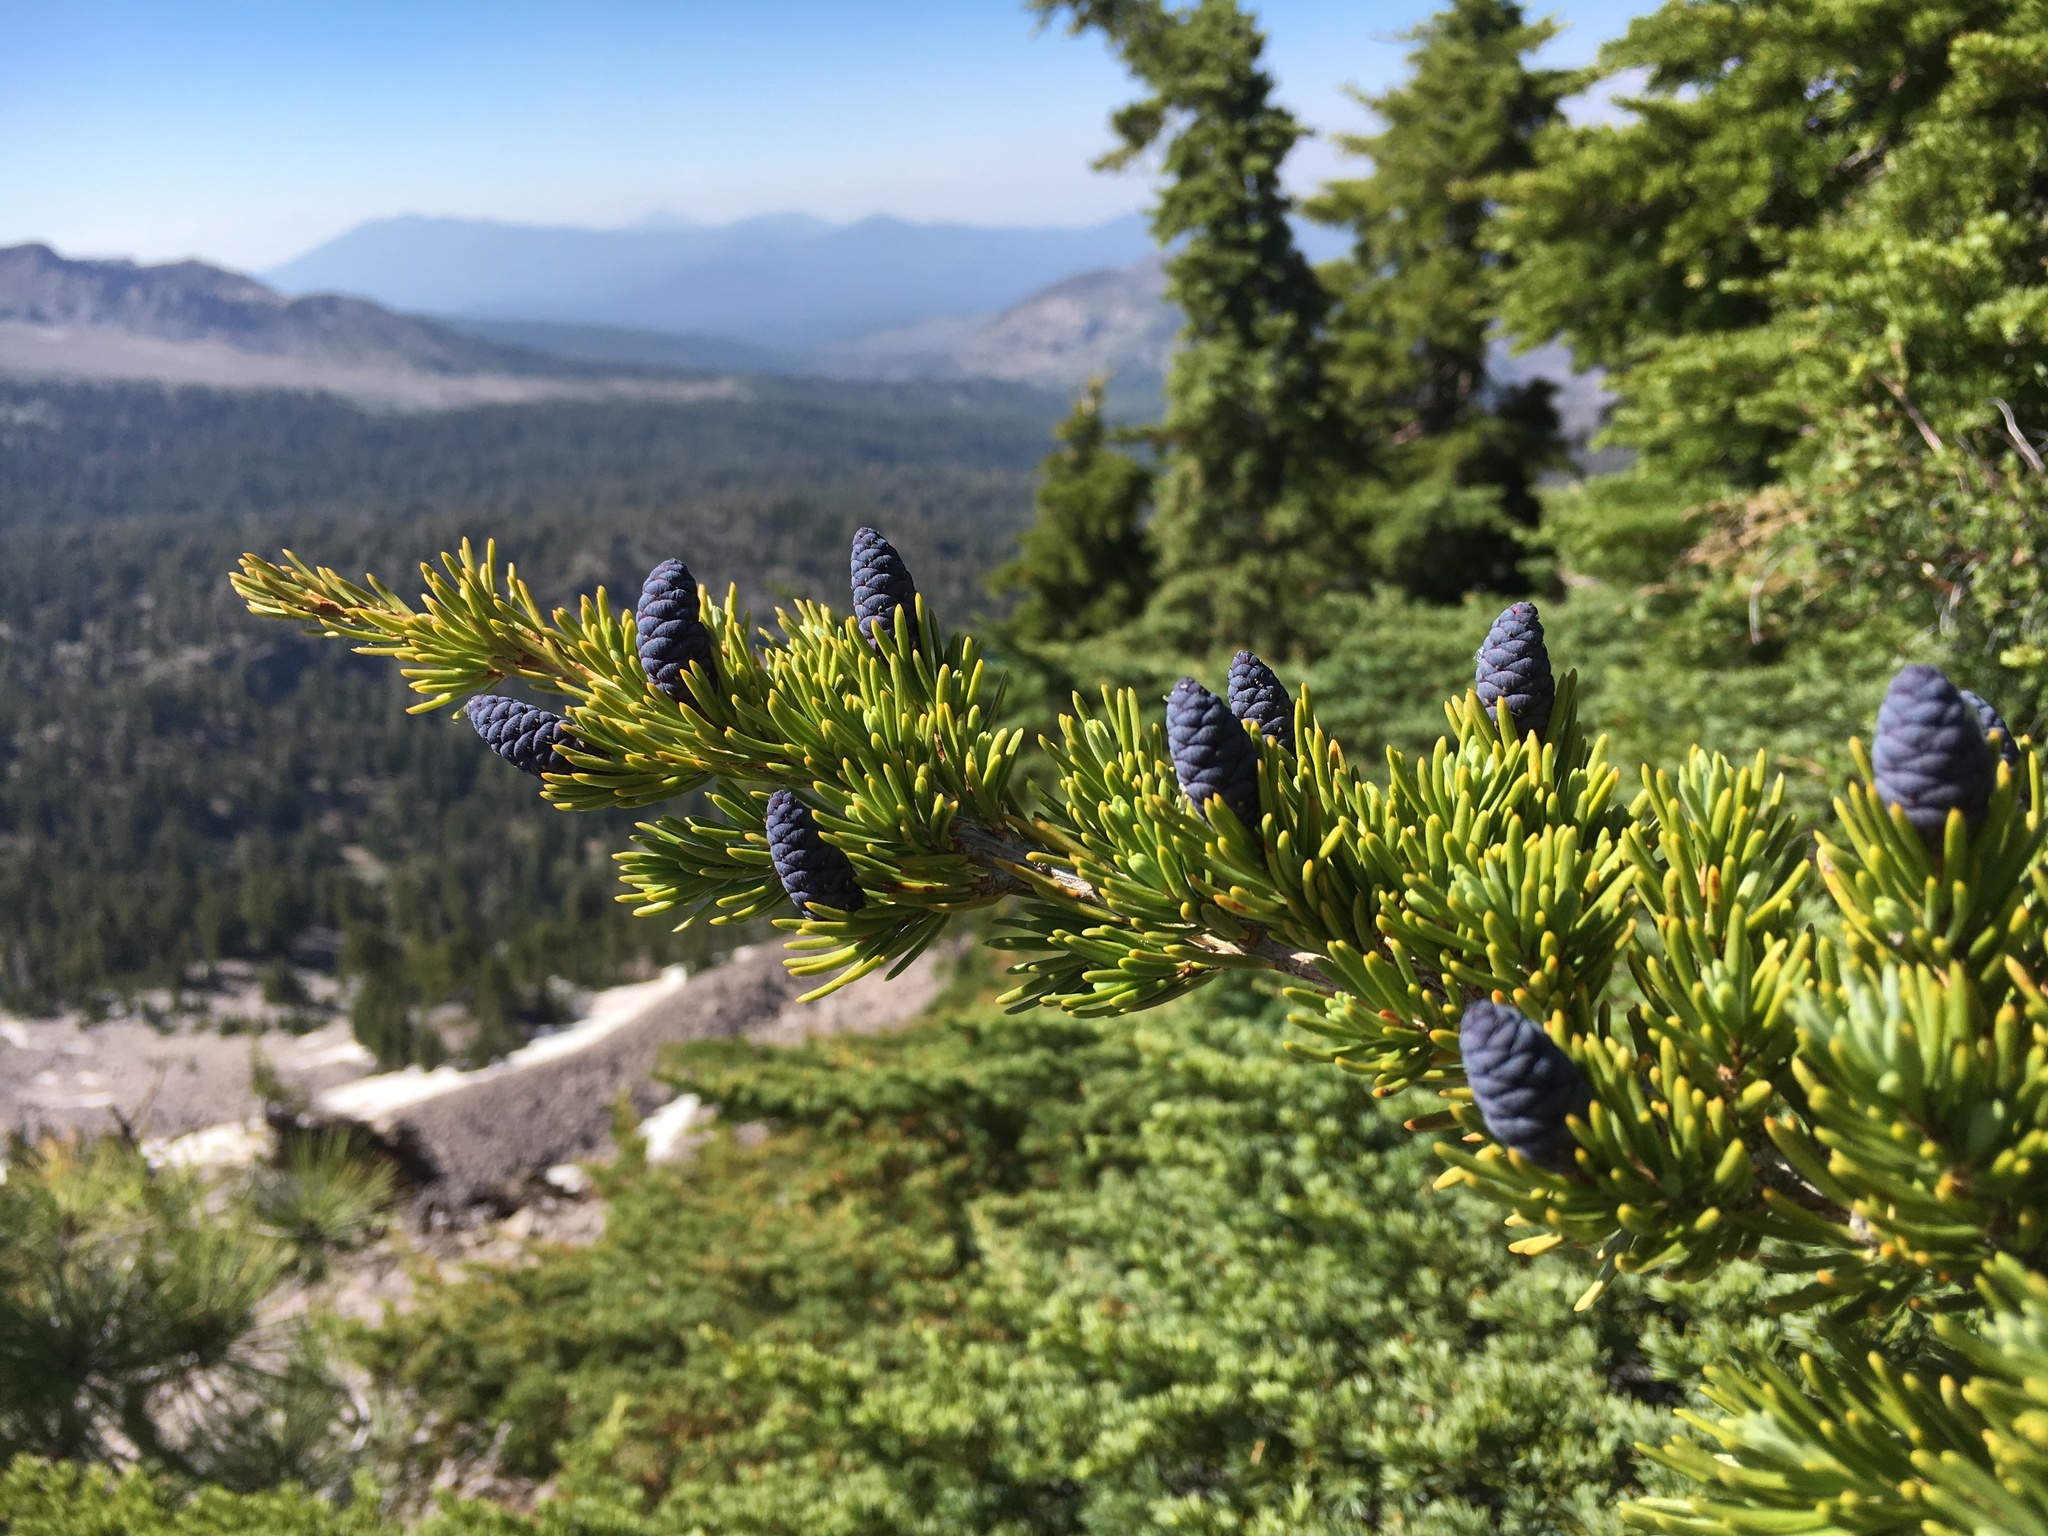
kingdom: Plantae
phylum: Tracheophyta
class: Pinopsida
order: Pinales
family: Pinaceae
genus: Tsuga
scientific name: Tsuga mertensiana
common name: Mountain hemlock
